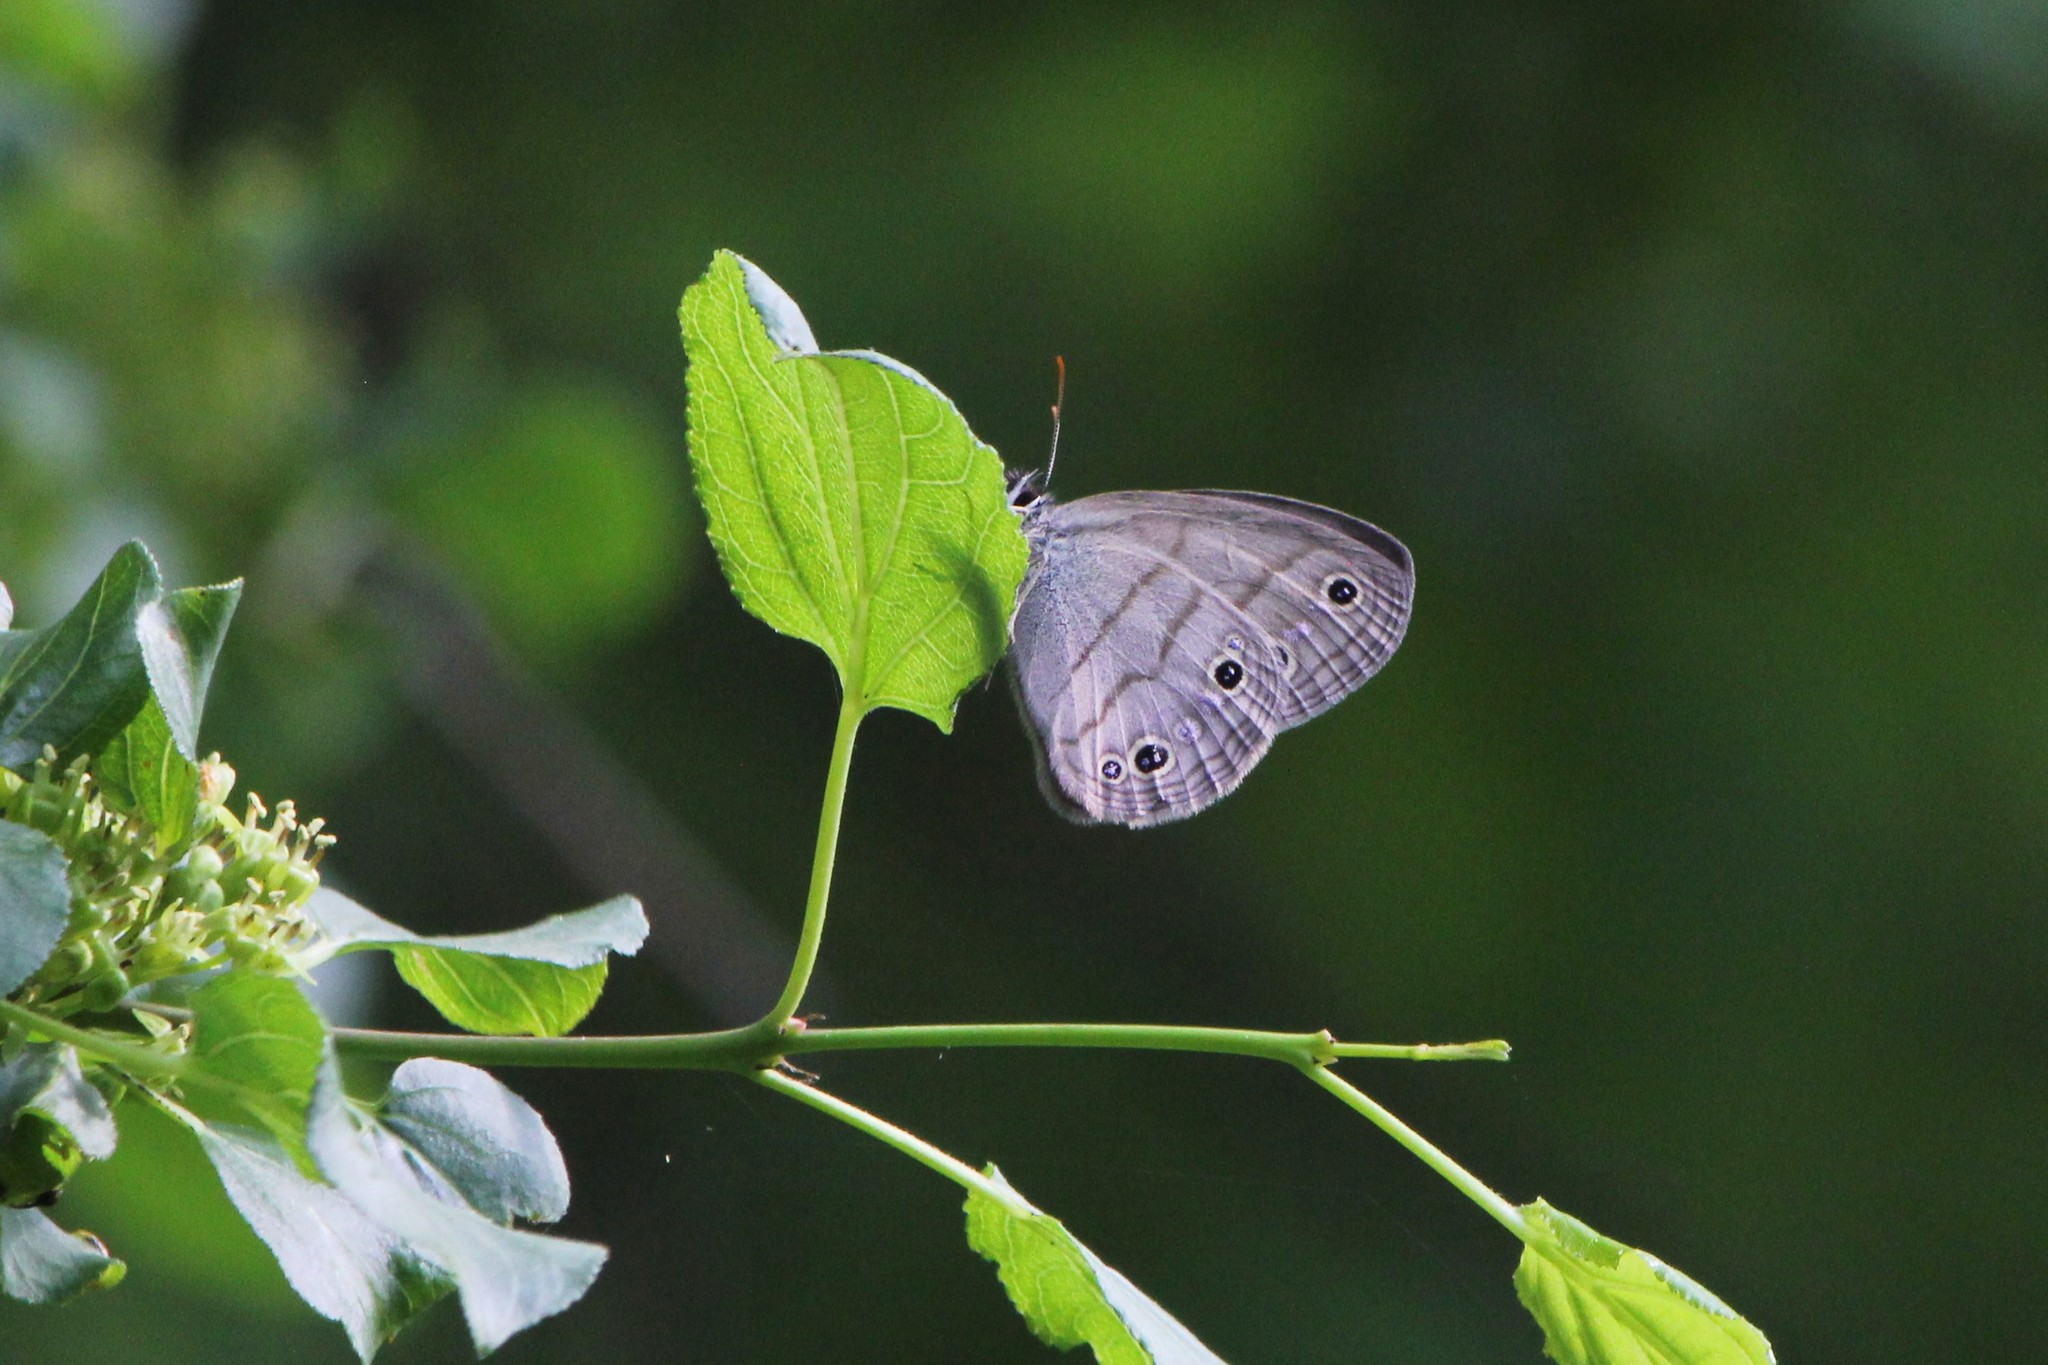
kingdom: Animalia
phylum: Arthropoda
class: Insecta
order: Lepidoptera
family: Nymphalidae
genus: Euptychia
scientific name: Euptychia cymela
